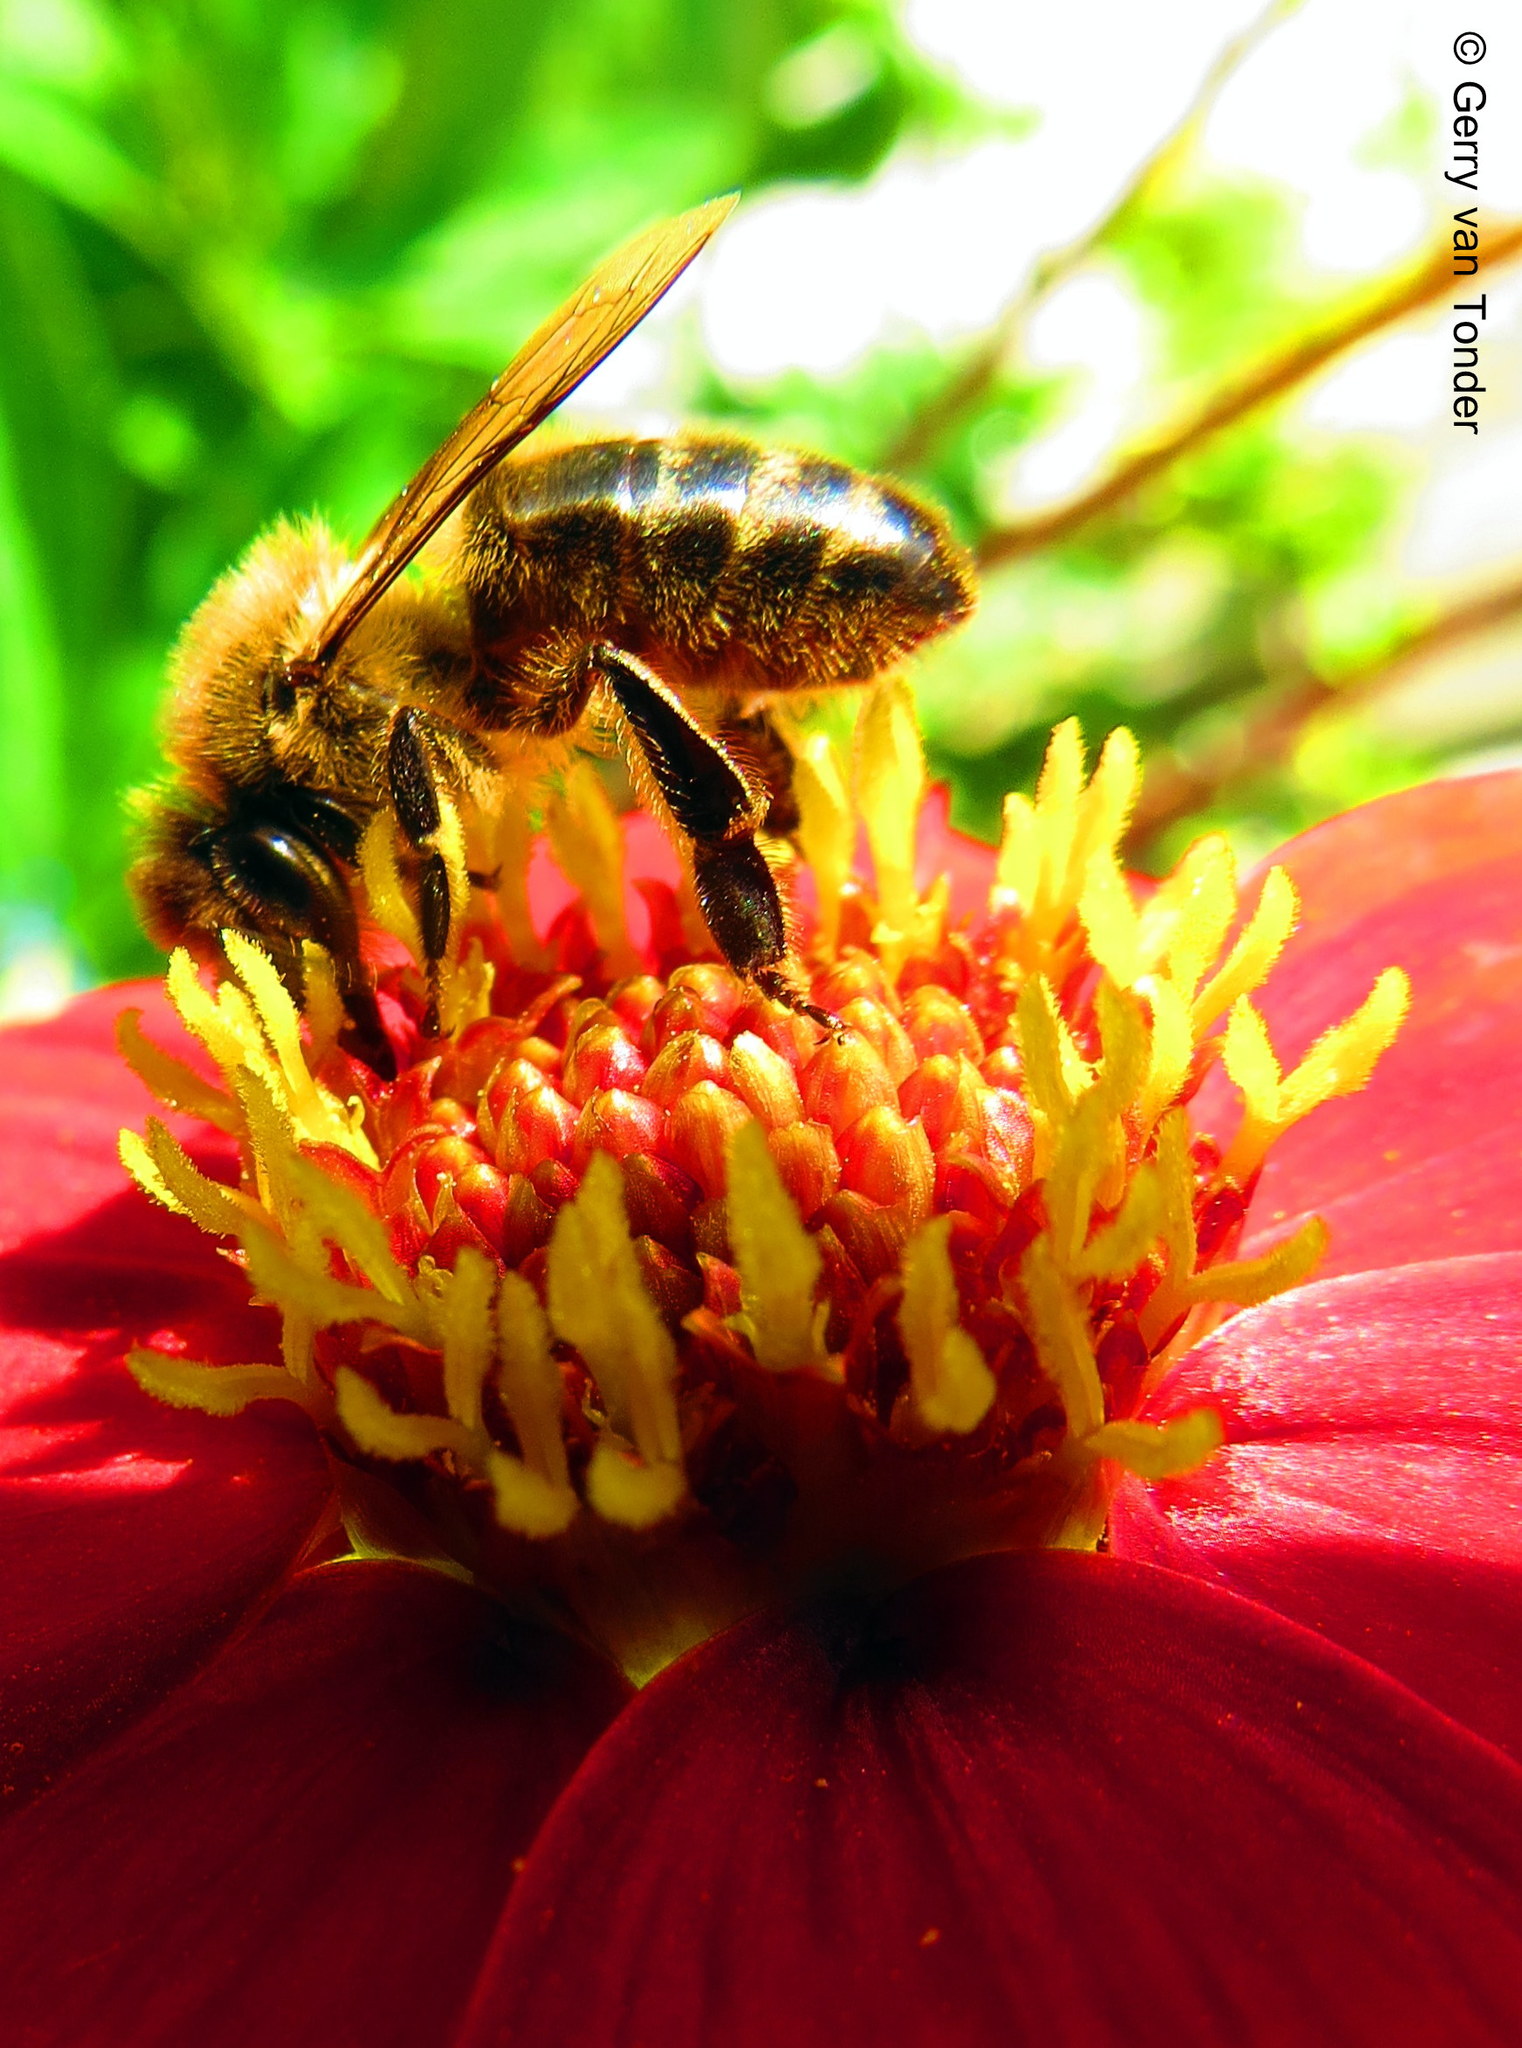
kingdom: Animalia
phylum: Arthropoda
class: Insecta
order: Hymenoptera
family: Apidae
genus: Apis
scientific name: Apis mellifera
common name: Honey bee
